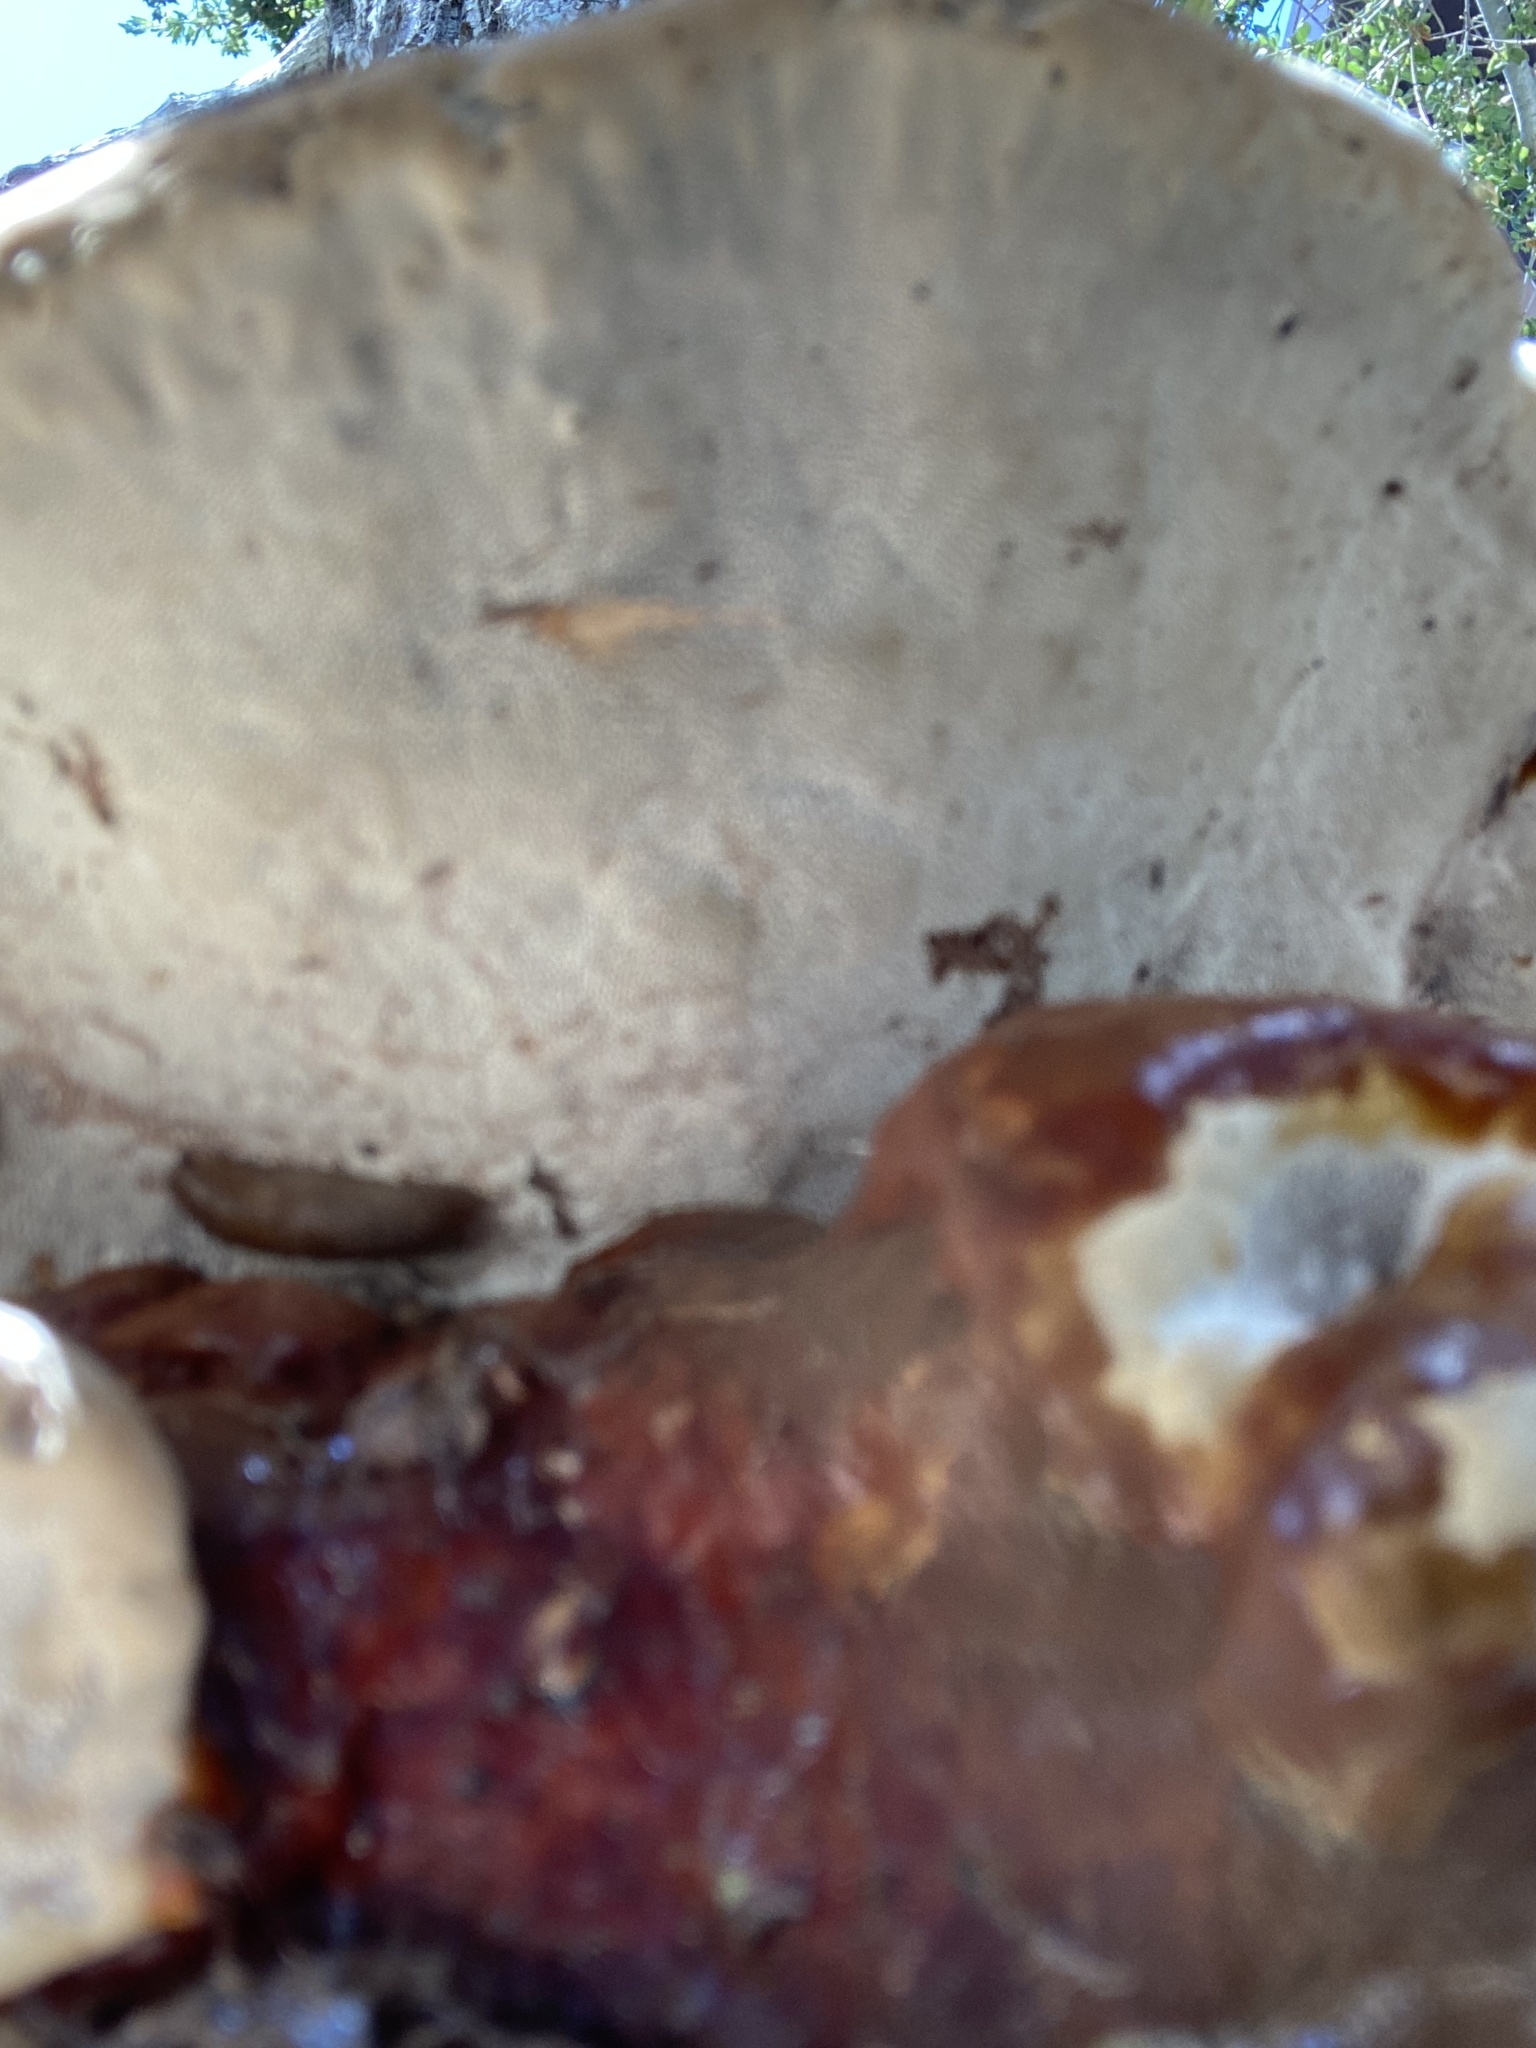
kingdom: Fungi
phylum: Basidiomycota
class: Agaricomycetes
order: Polyporales
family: Polyporaceae
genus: Ganoderma
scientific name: Ganoderma polychromum
